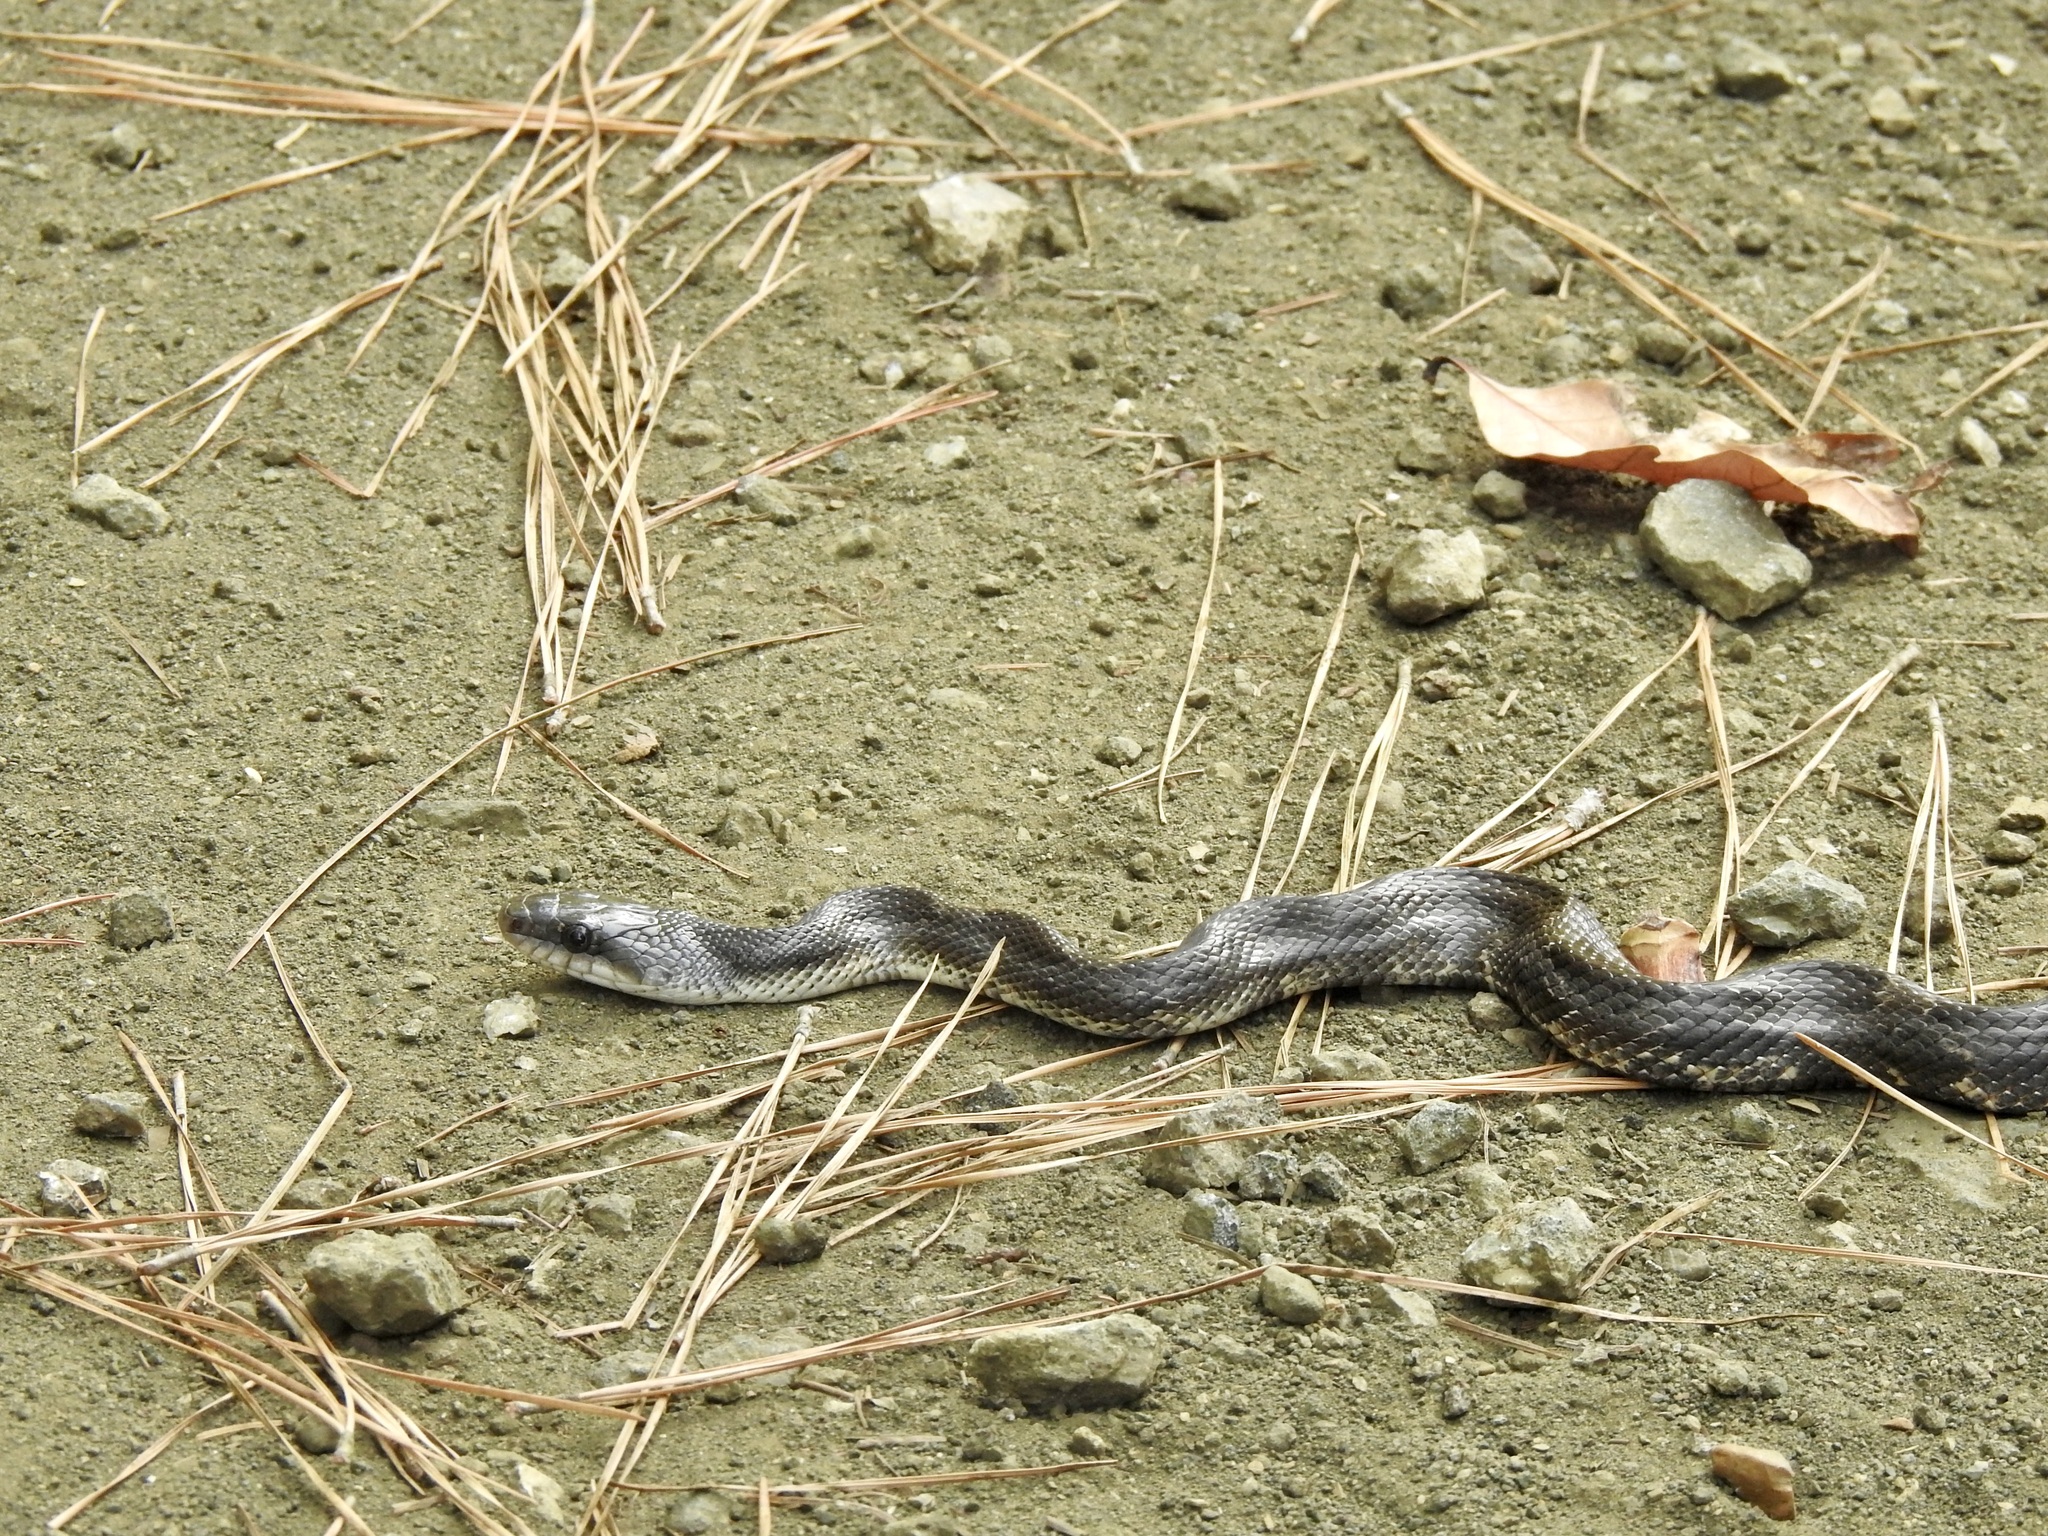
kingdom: Animalia
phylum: Chordata
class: Squamata
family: Colubridae
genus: Pantherophis
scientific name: Pantherophis obsoletus
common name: Black rat snake
